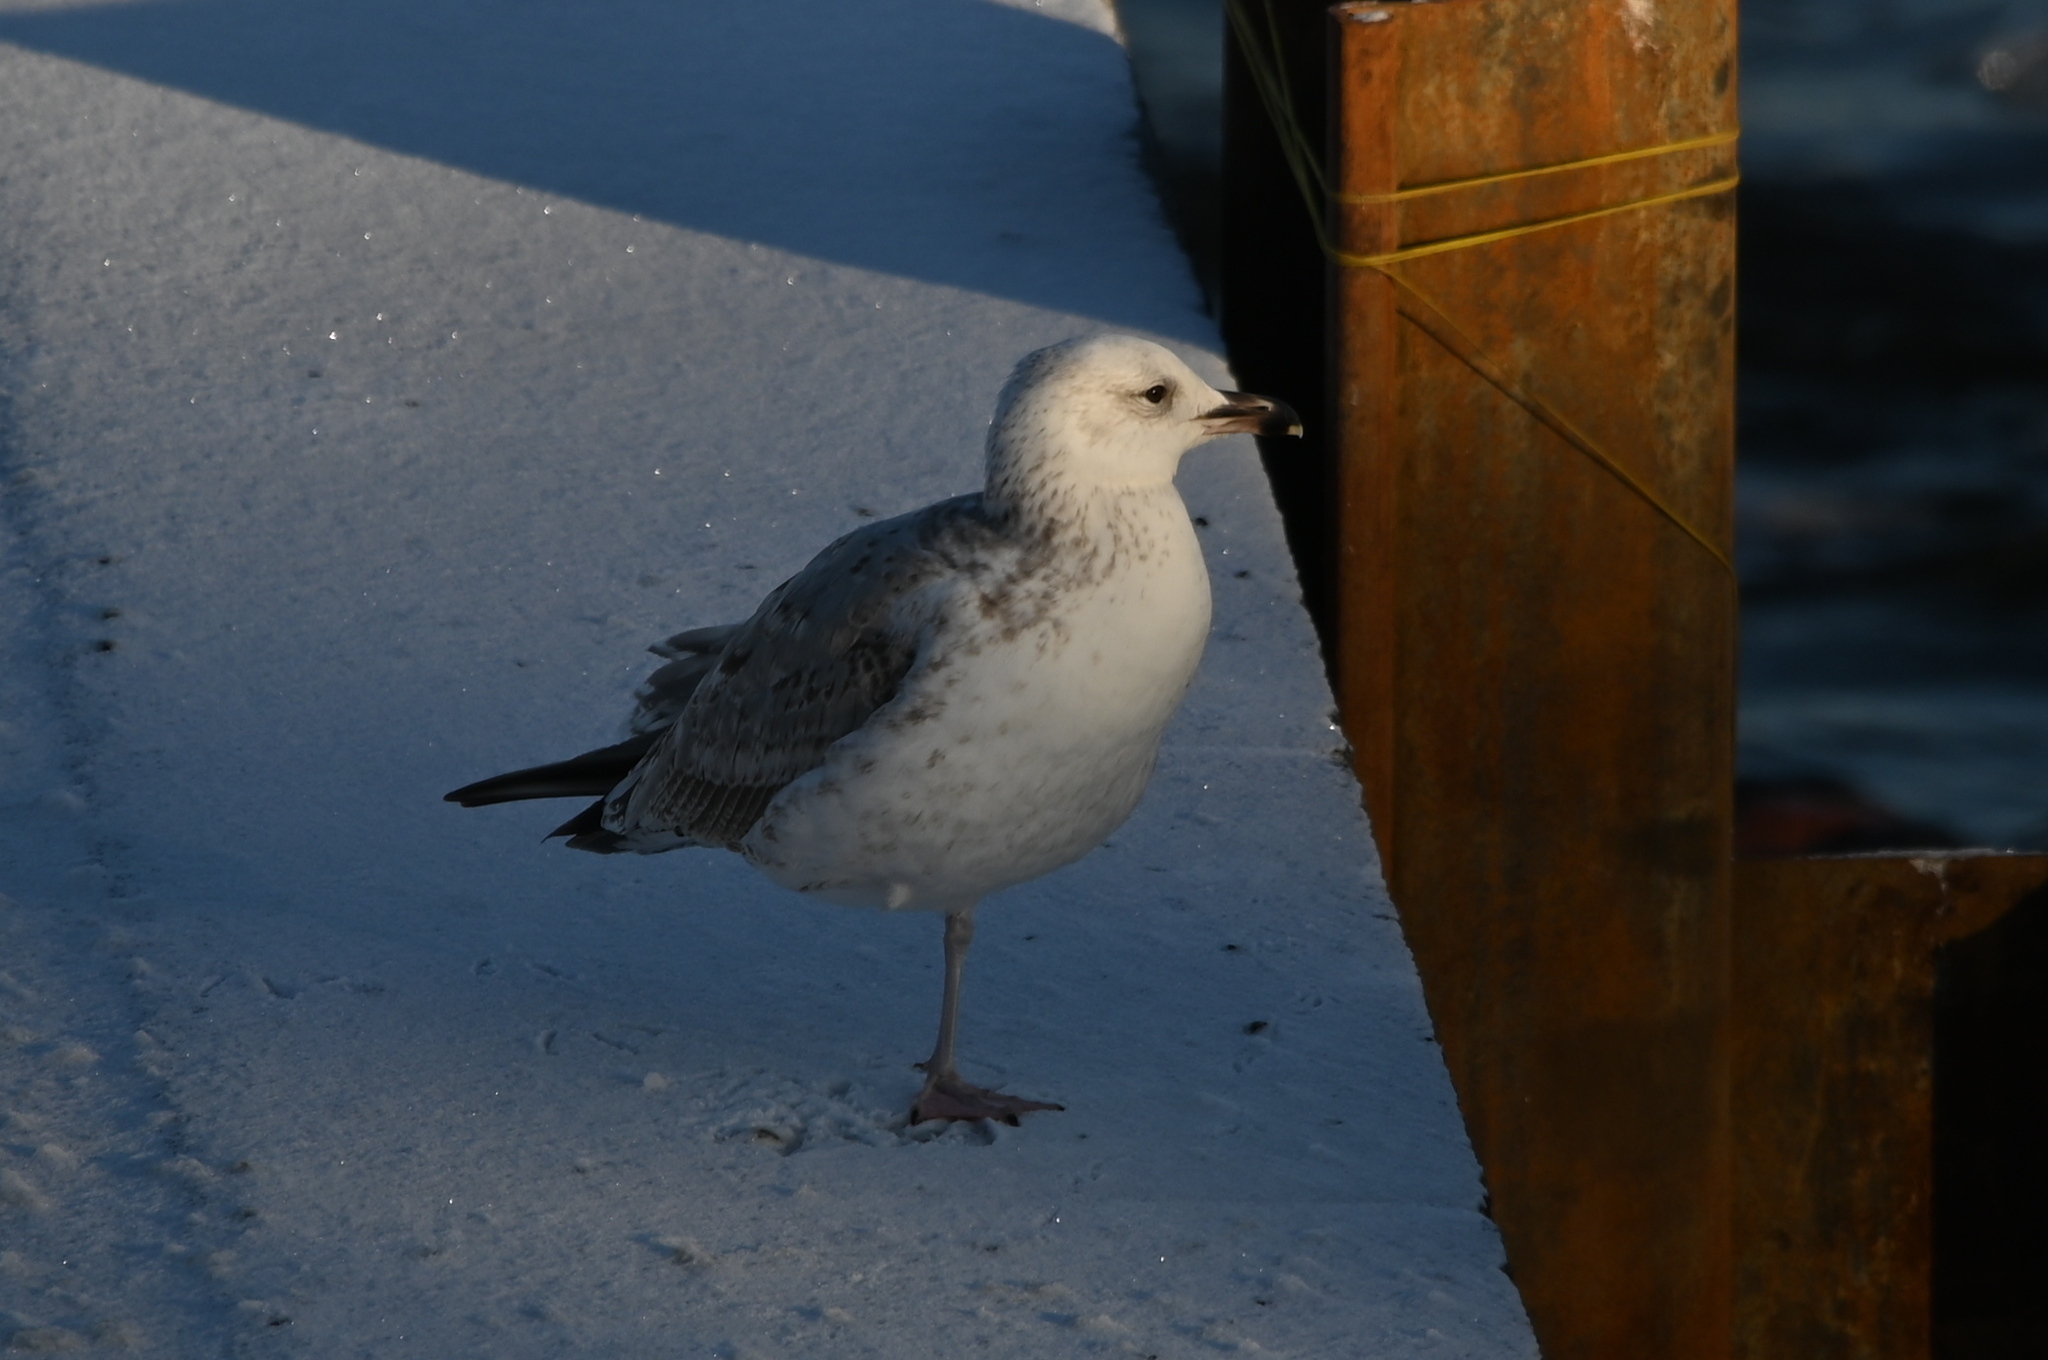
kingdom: Animalia
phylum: Chordata
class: Aves
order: Charadriiformes
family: Laridae
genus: Larus
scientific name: Larus cachinnans
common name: Caspian gull
